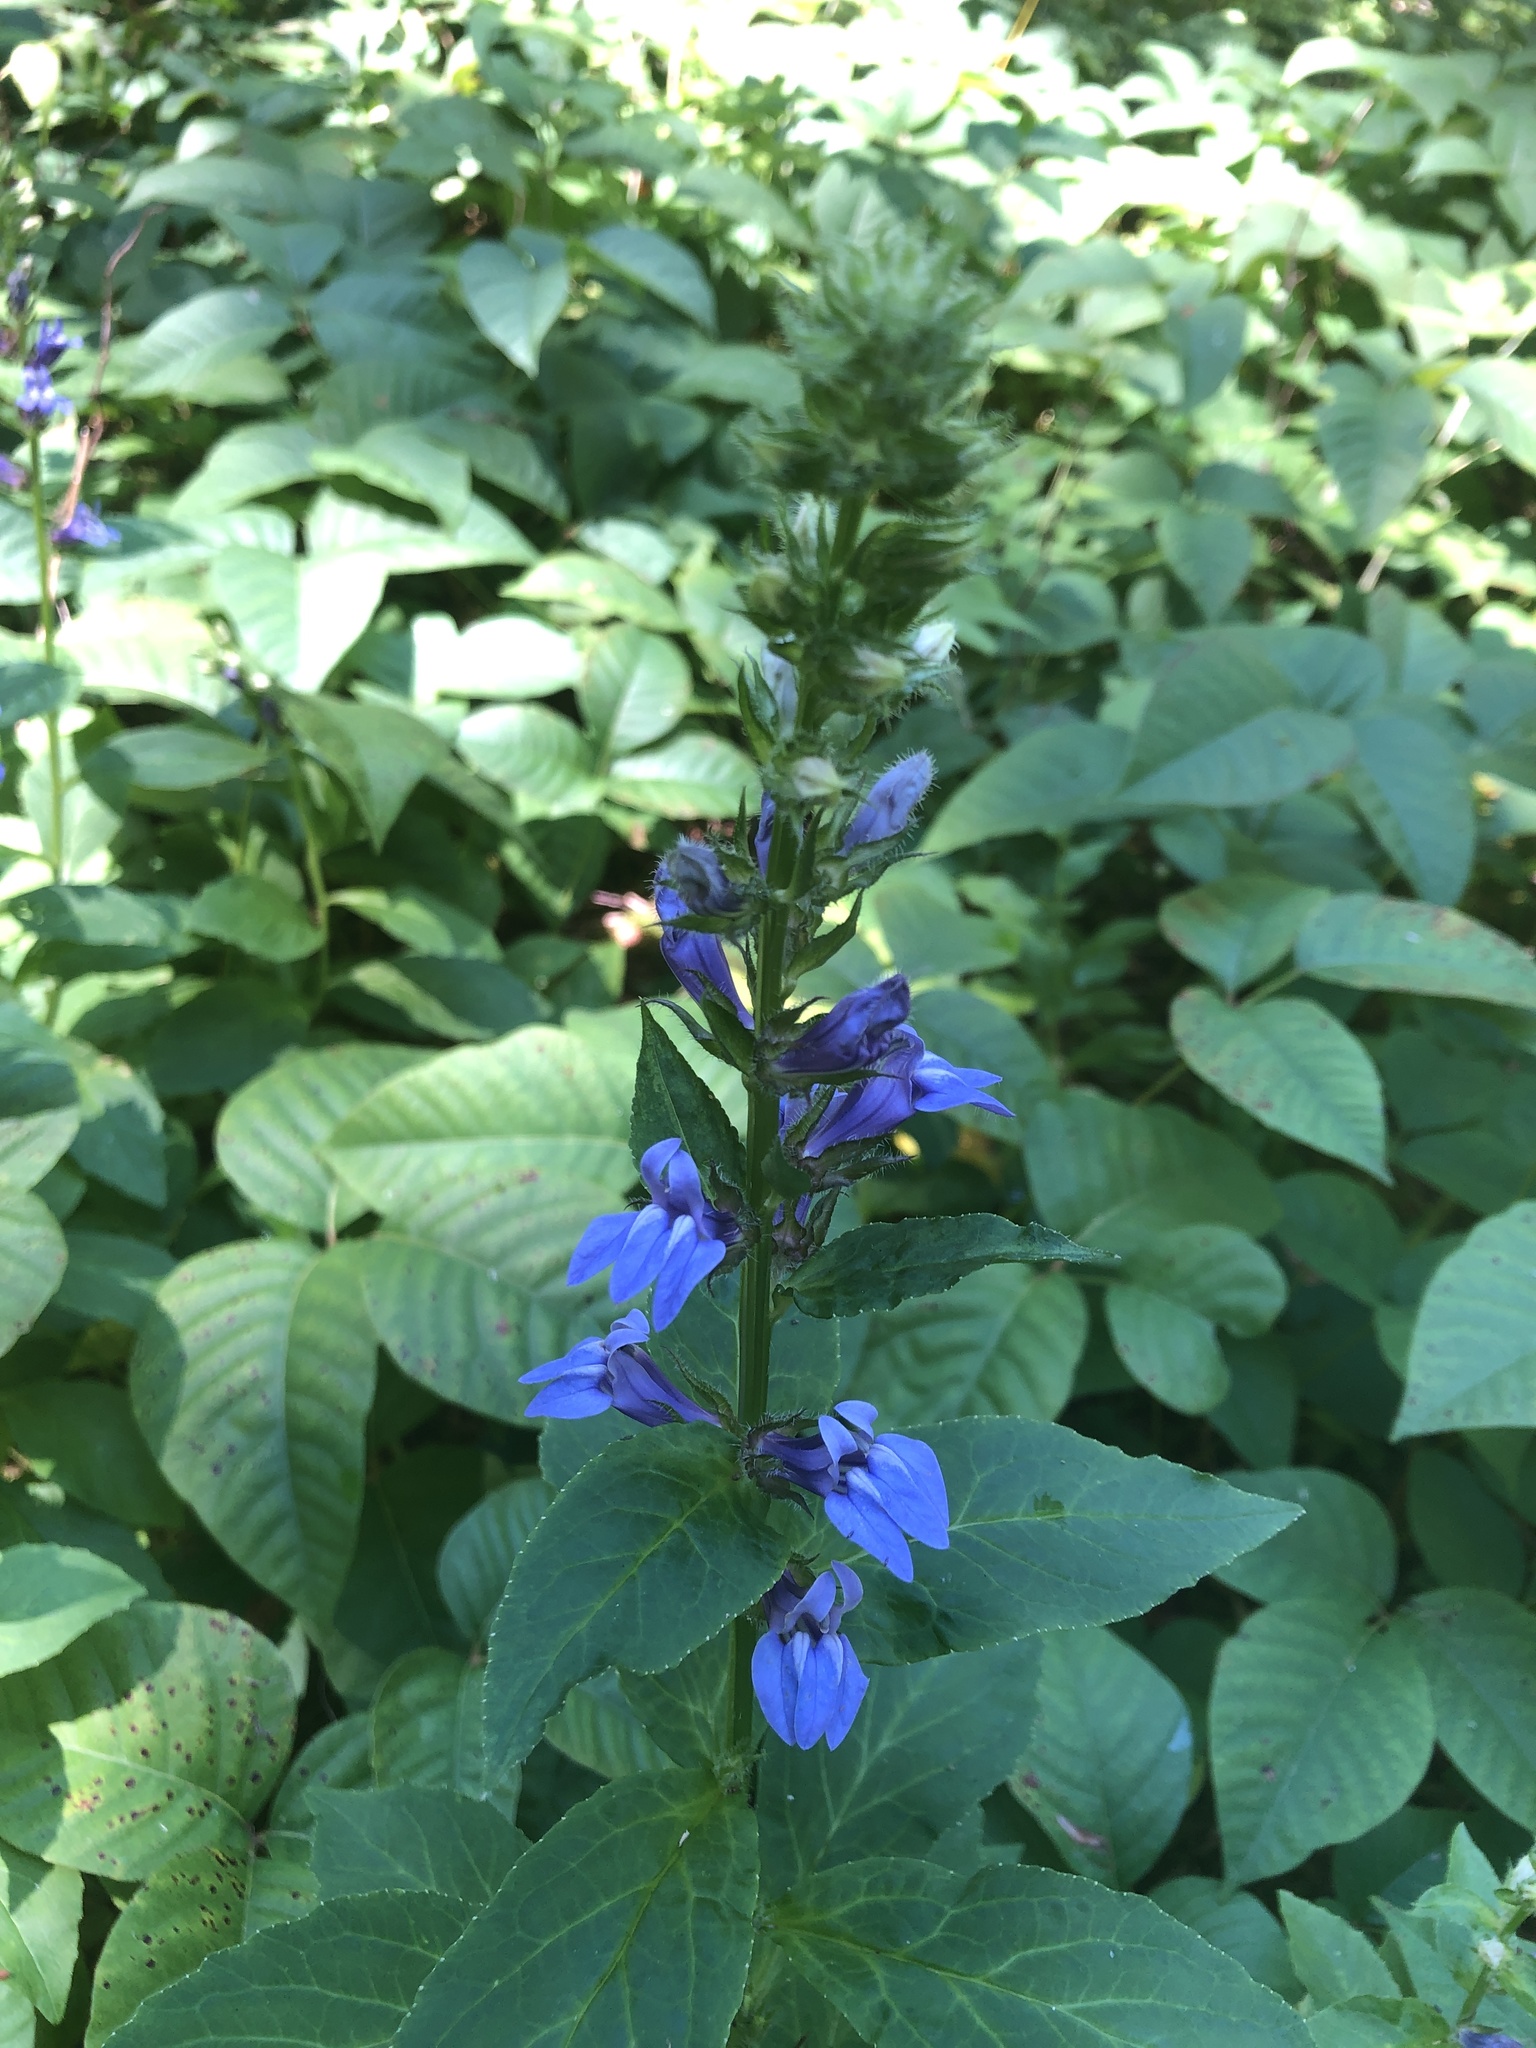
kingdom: Plantae
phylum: Tracheophyta
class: Magnoliopsida
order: Asterales
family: Campanulaceae
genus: Lobelia
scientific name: Lobelia siphilitica
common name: Great lobelia
